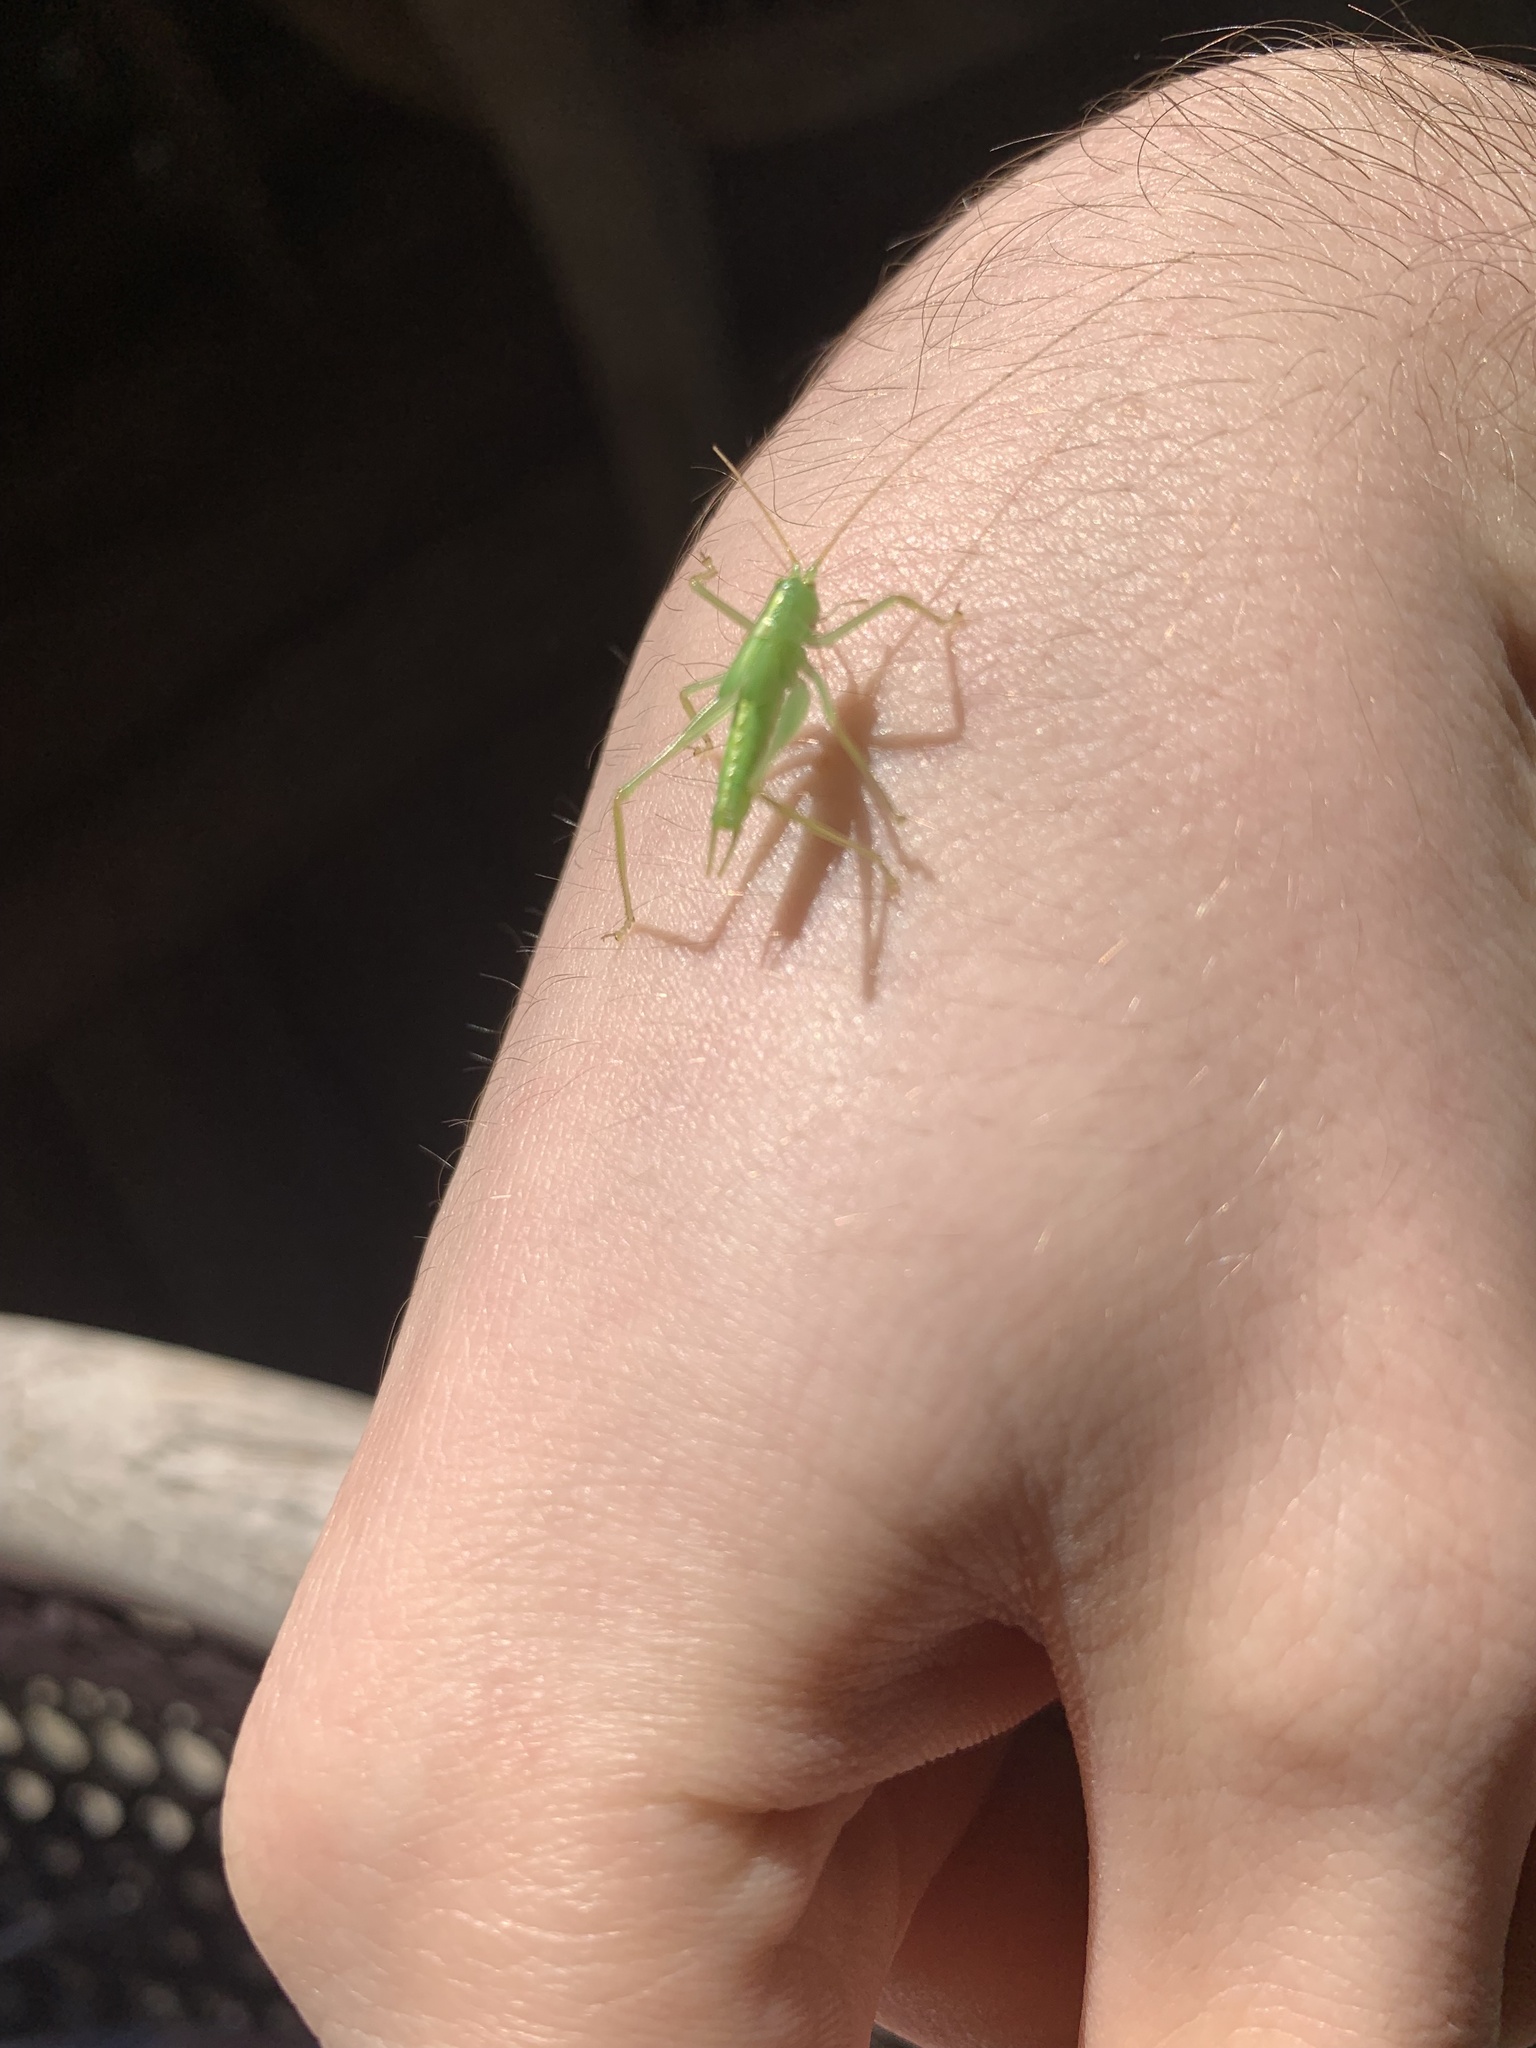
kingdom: Animalia
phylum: Arthropoda
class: Insecta
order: Orthoptera
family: Tettigoniidae
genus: Meconema
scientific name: Meconema thalassinum
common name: Oak bush-cricket
